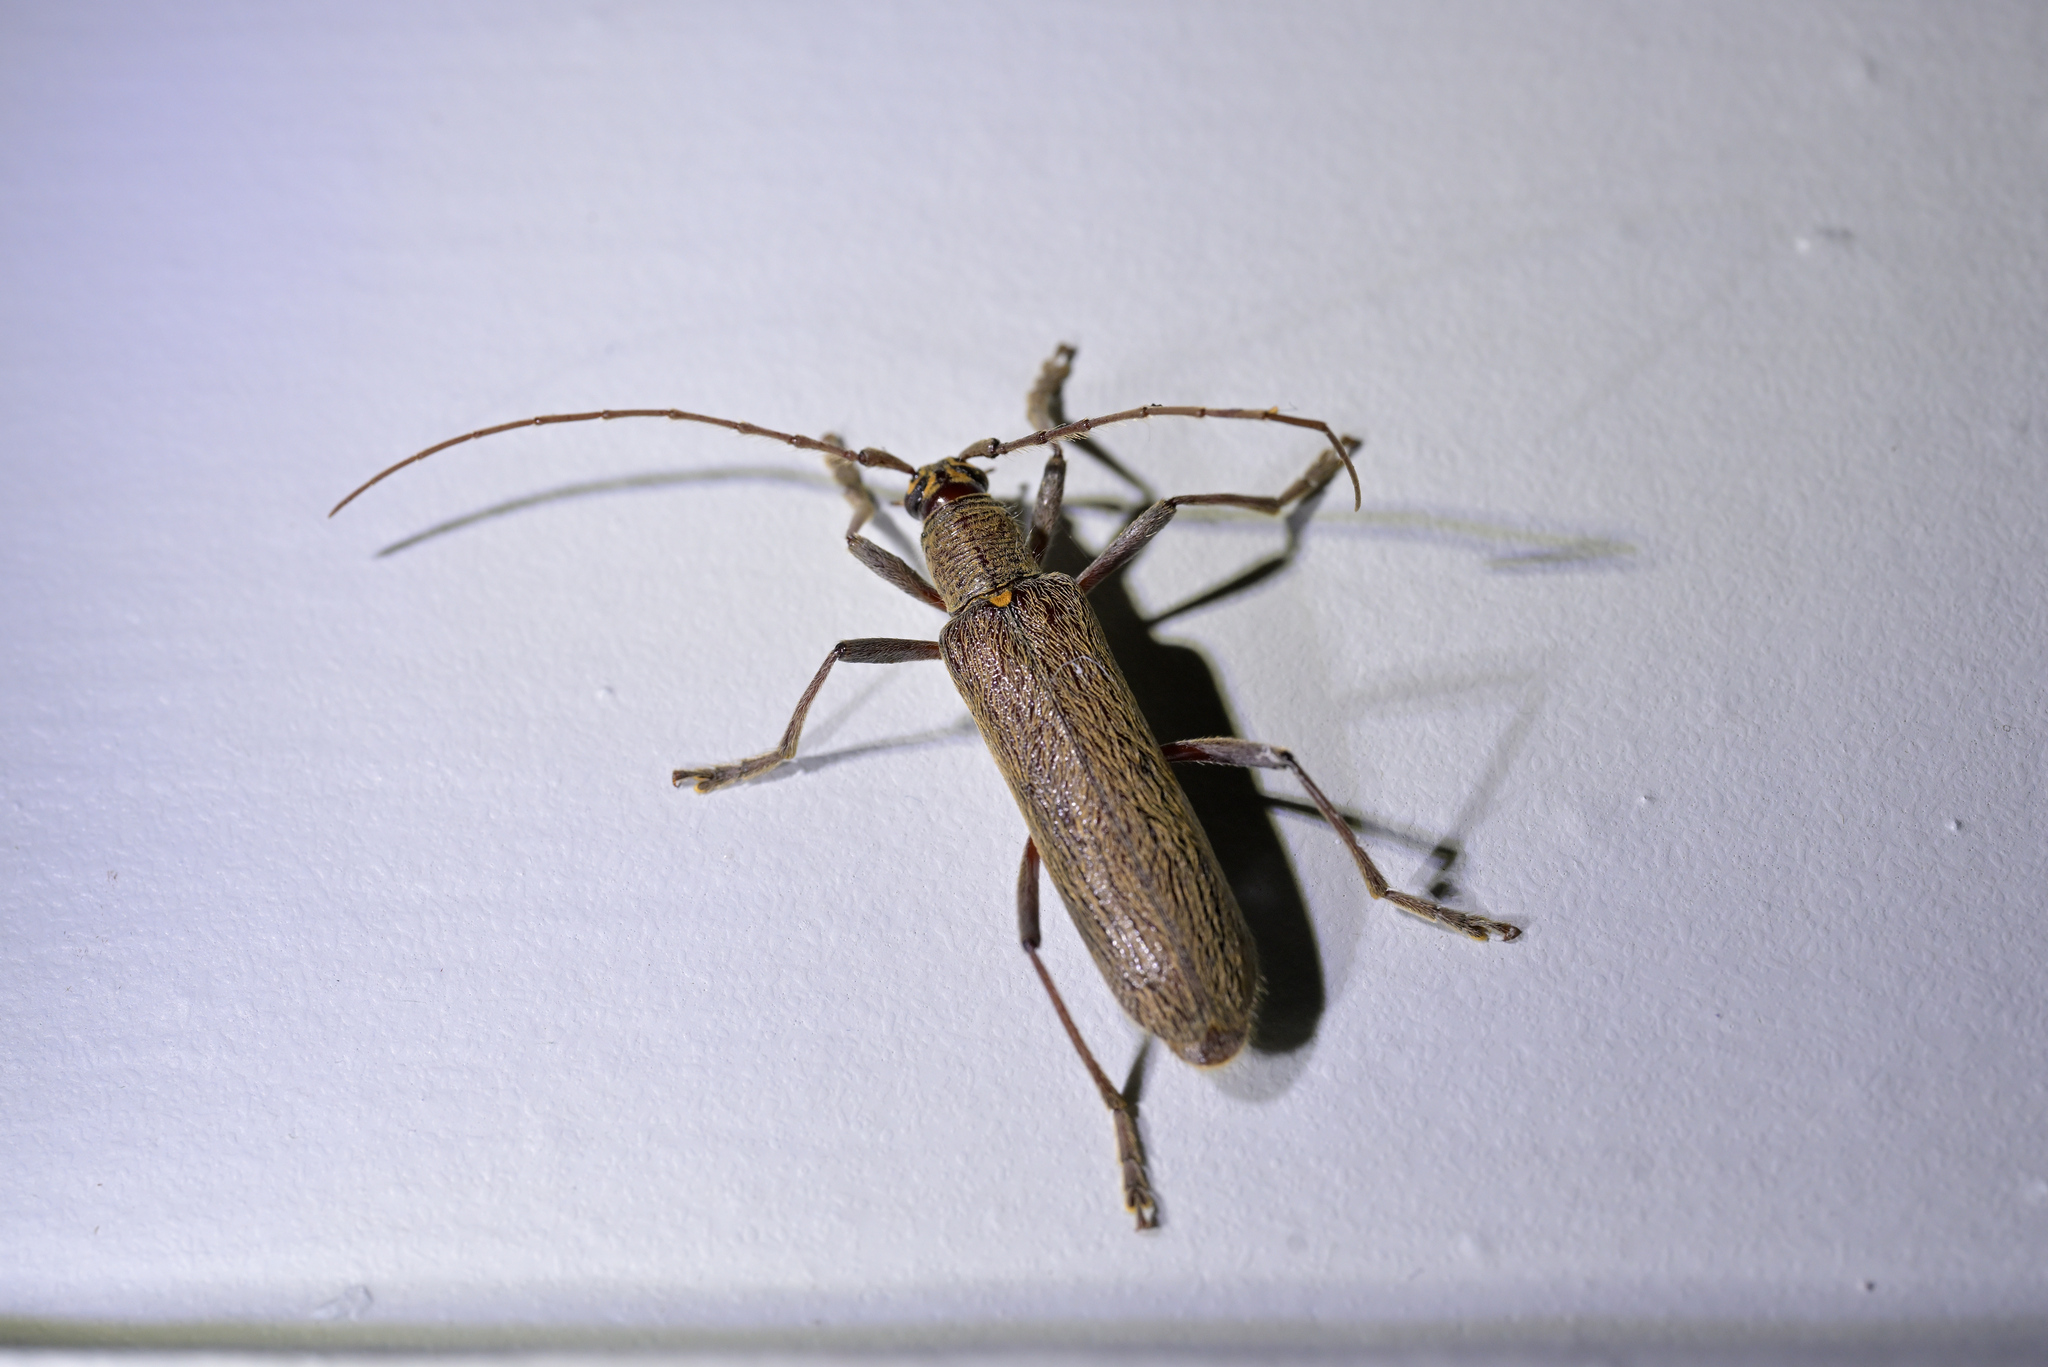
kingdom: Animalia
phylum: Arthropoda
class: Insecta
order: Coleoptera
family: Cerambycidae
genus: Oemona
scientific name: Oemona hirta
